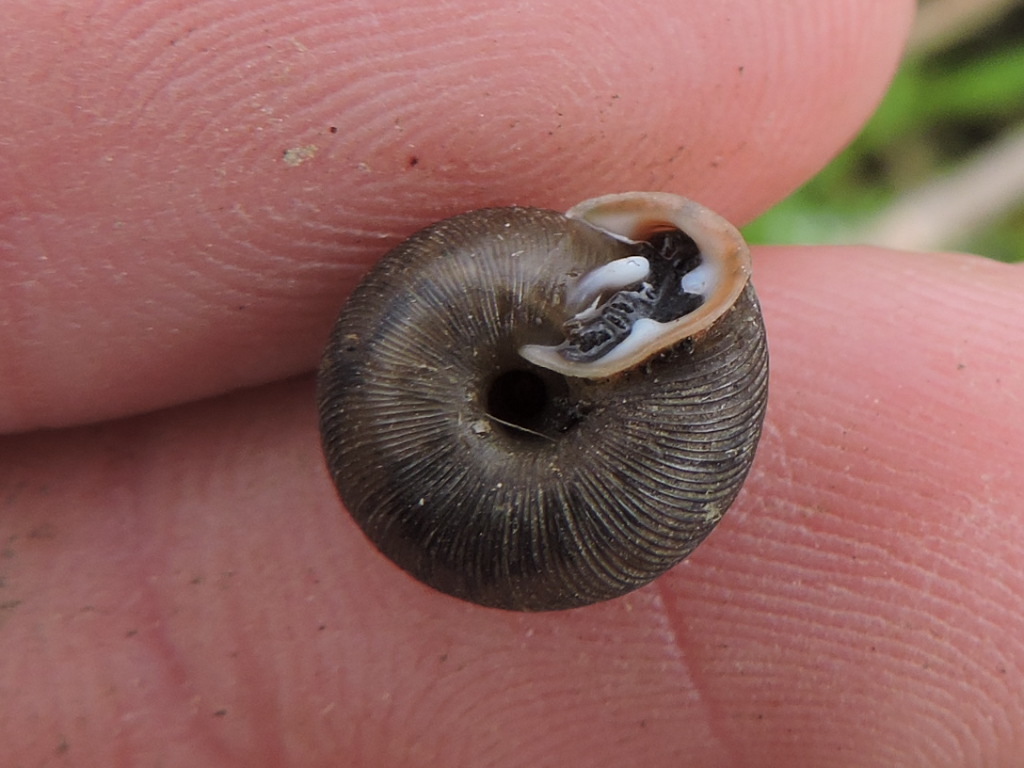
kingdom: Animalia
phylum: Mollusca
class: Gastropoda
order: Stylommatophora
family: Polygyridae
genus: Triodopsis
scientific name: Triodopsis cragini
